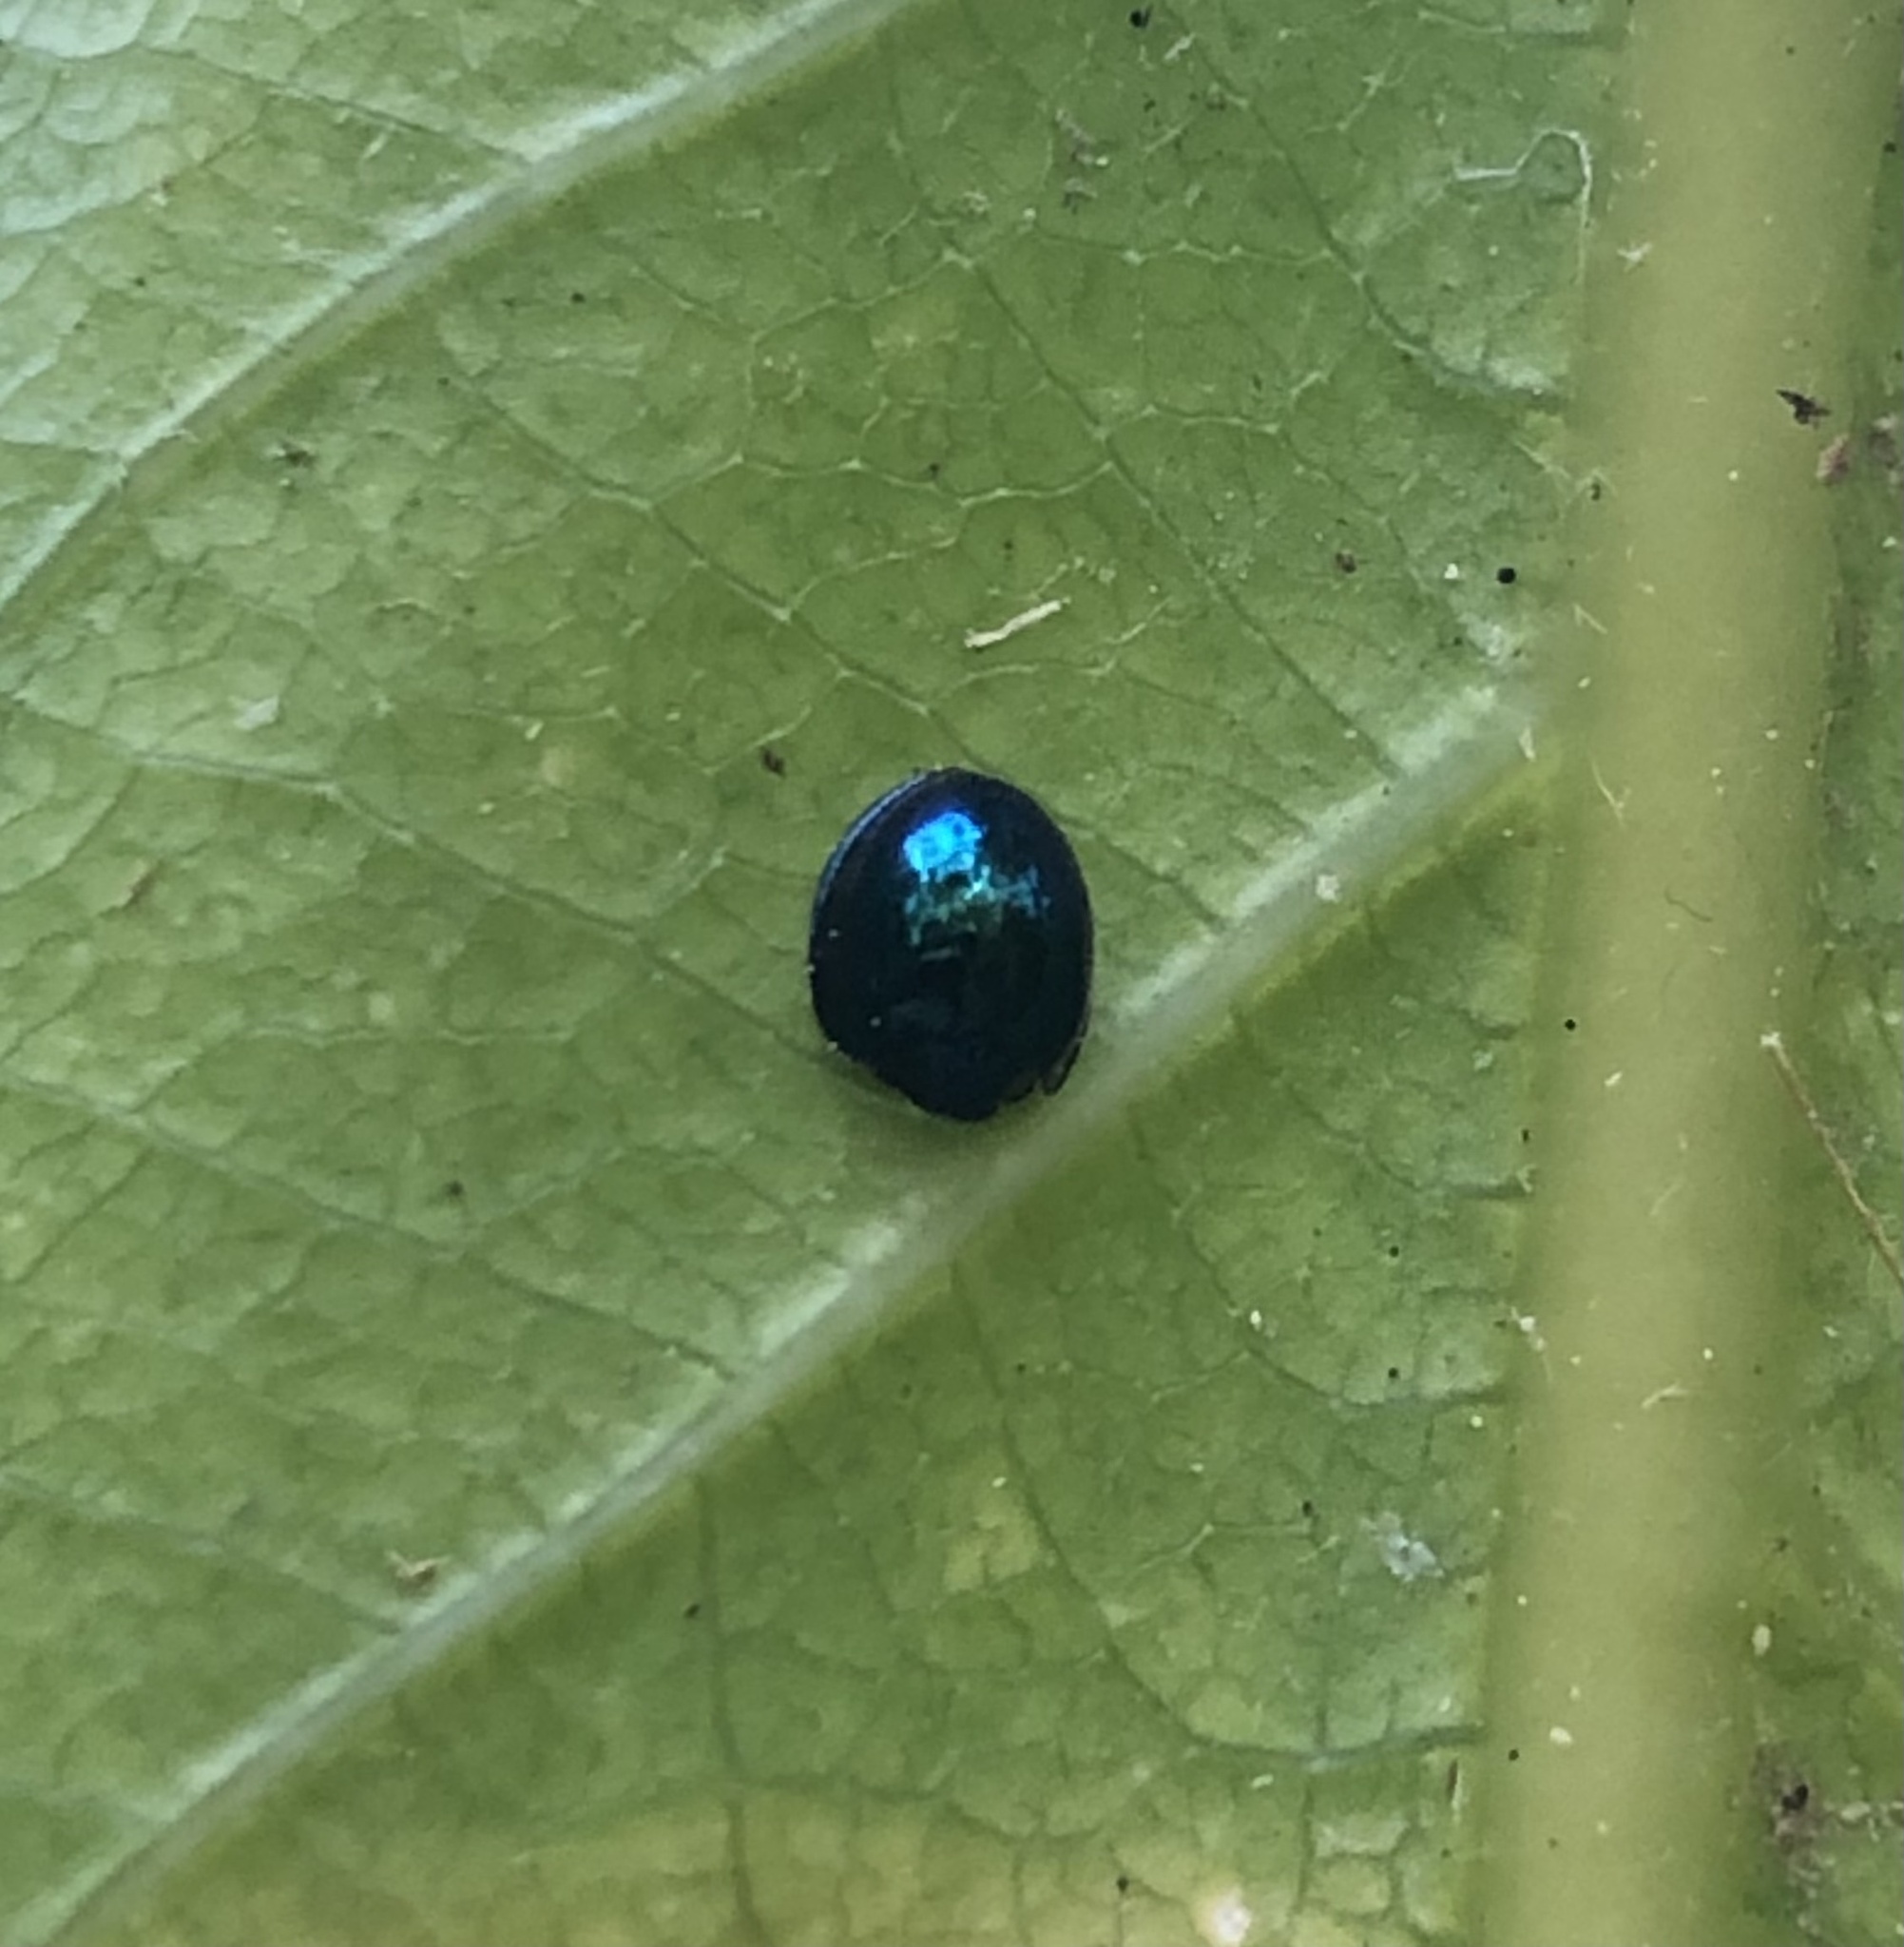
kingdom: Animalia
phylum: Arthropoda
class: Insecta
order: Coleoptera
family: Coccinellidae
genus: Halmus
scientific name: Halmus chalybeus
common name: Steel blue ladybird beetle
